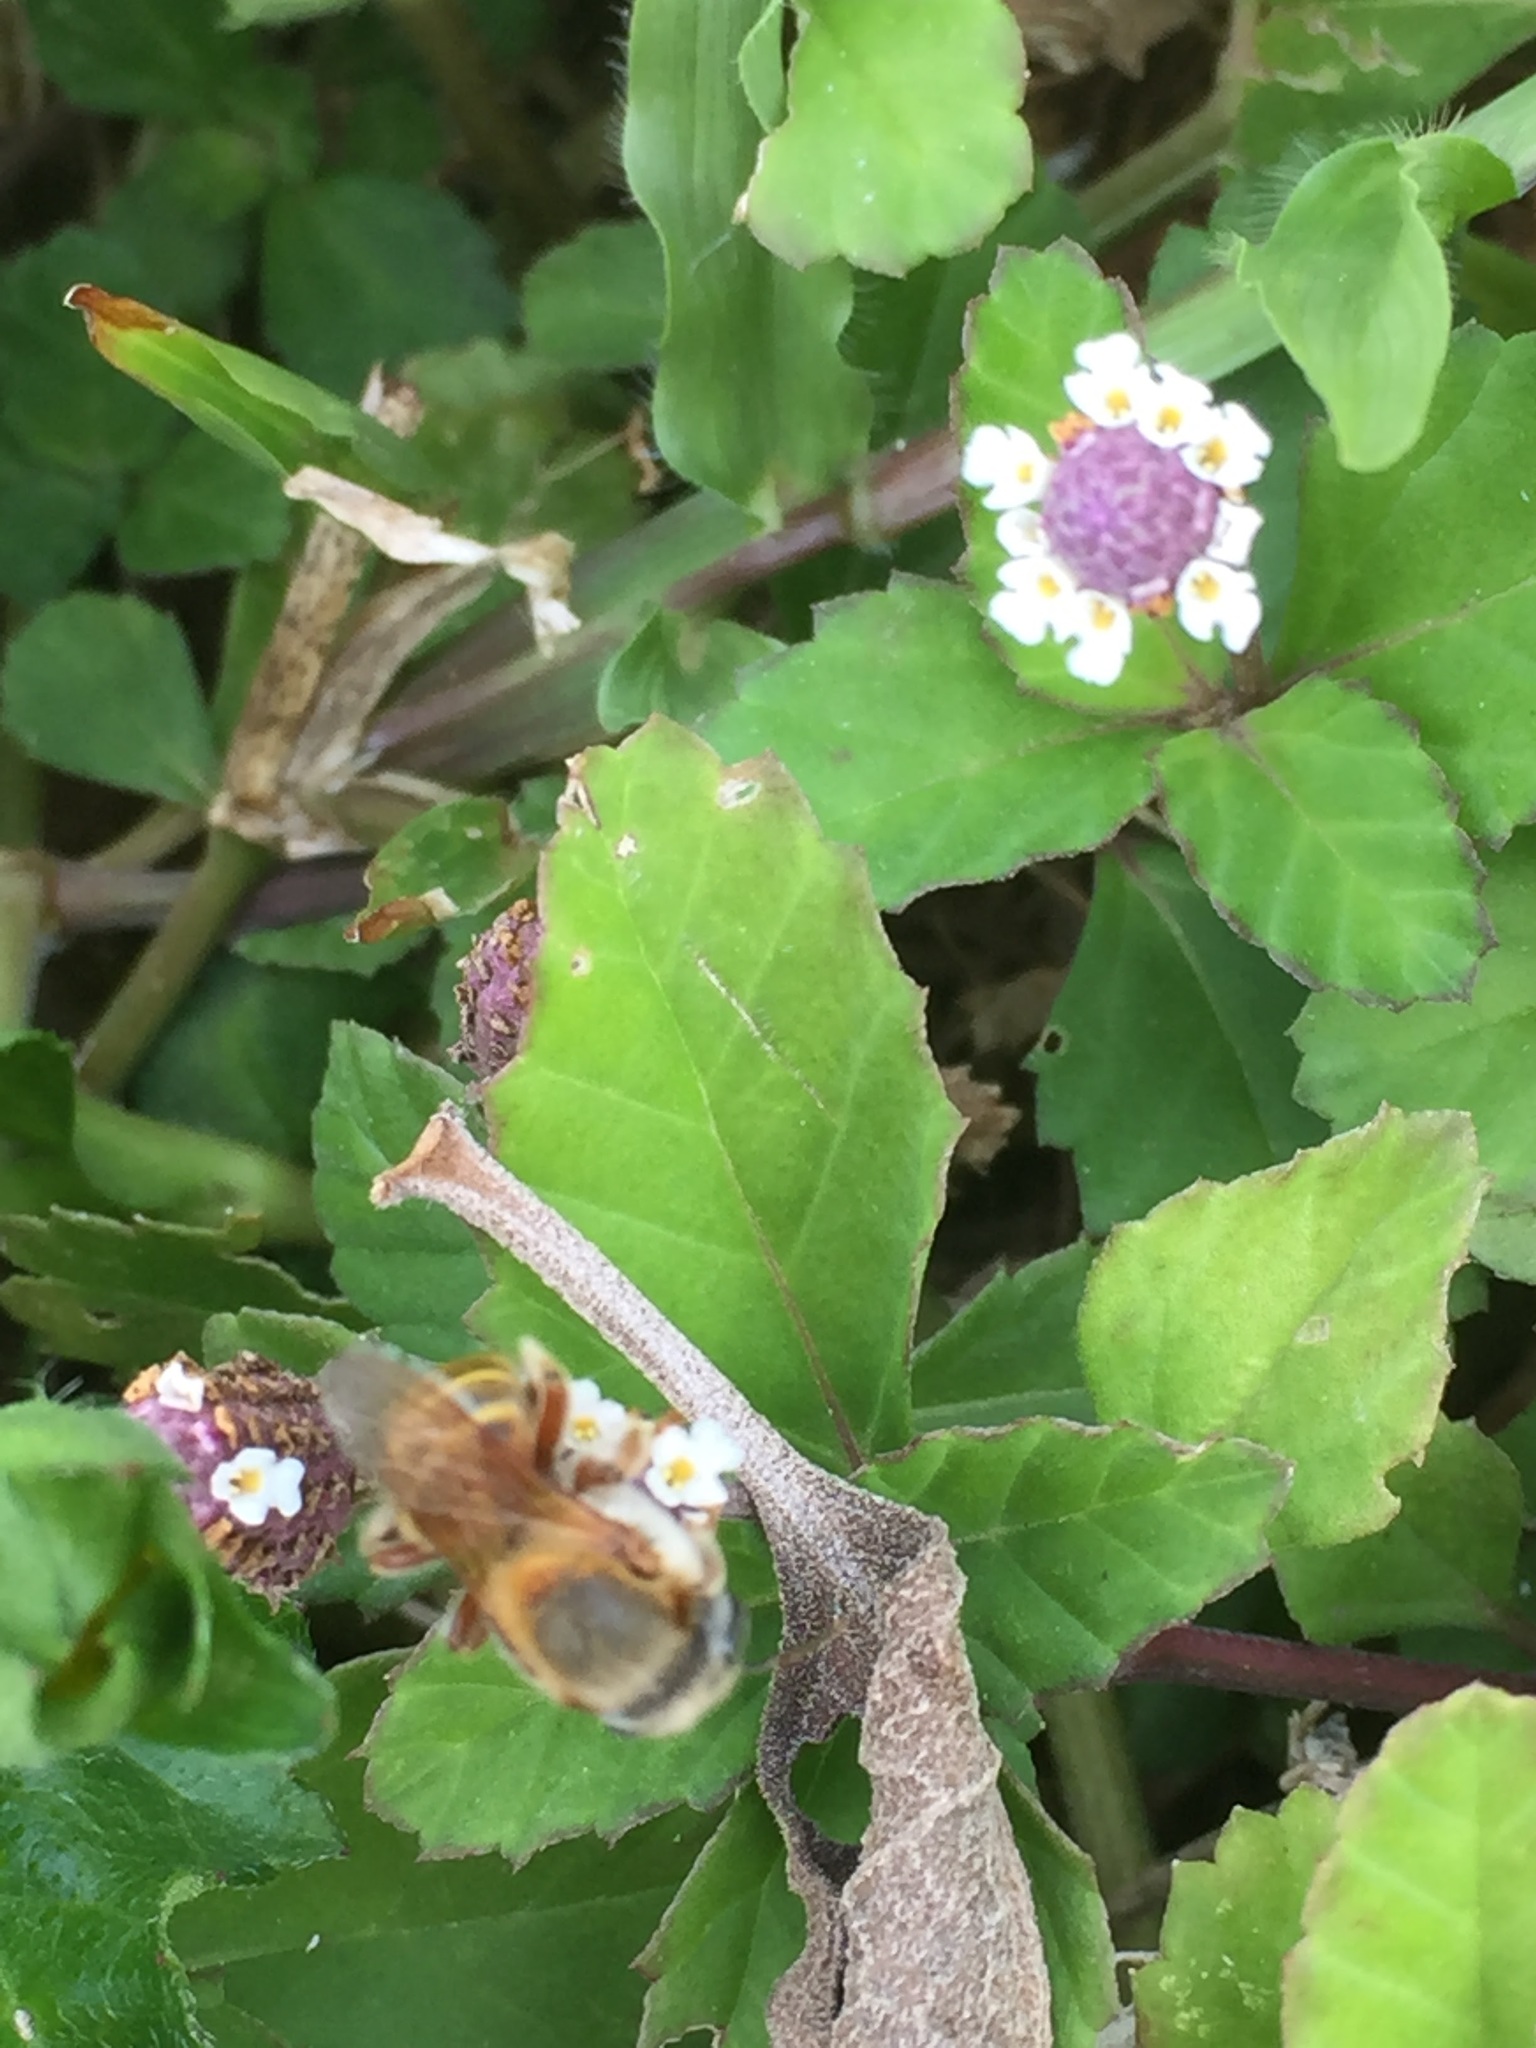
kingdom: Animalia
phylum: Arthropoda
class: Insecta
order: Hymenoptera
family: Apidae
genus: Melipona
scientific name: Melipona beecheii
